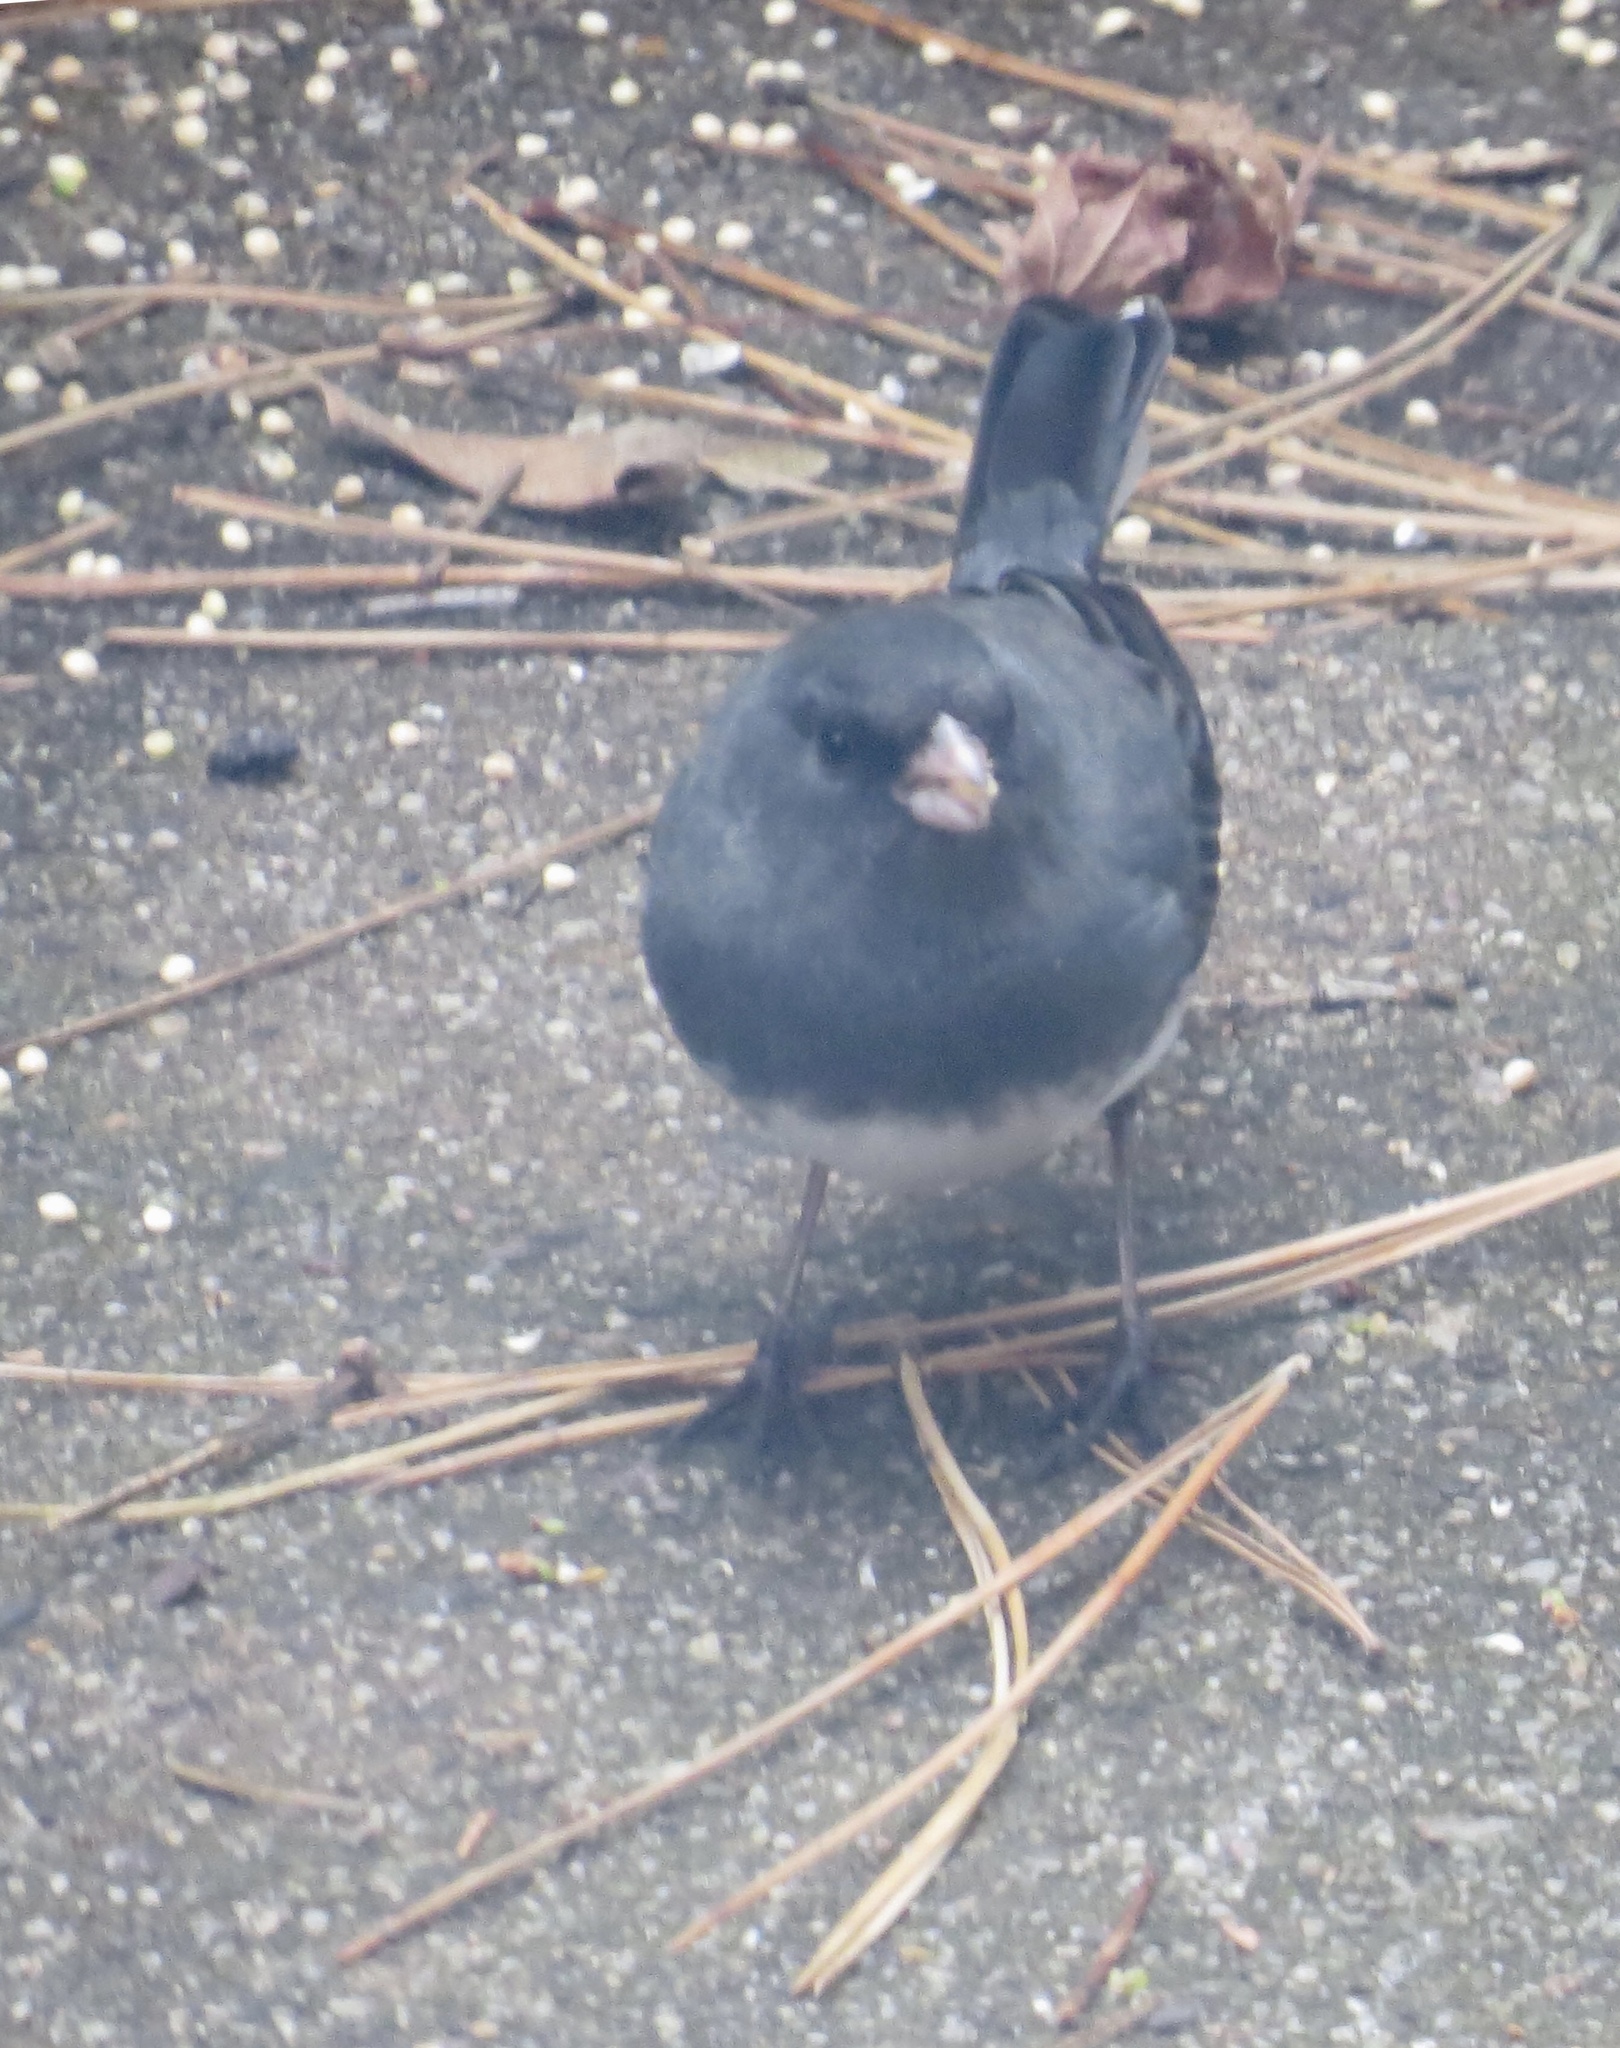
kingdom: Animalia
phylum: Chordata
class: Aves
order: Passeriformes
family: Passerellidae
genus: Junco
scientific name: Junco hyemalis
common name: Dark-eyed junco
